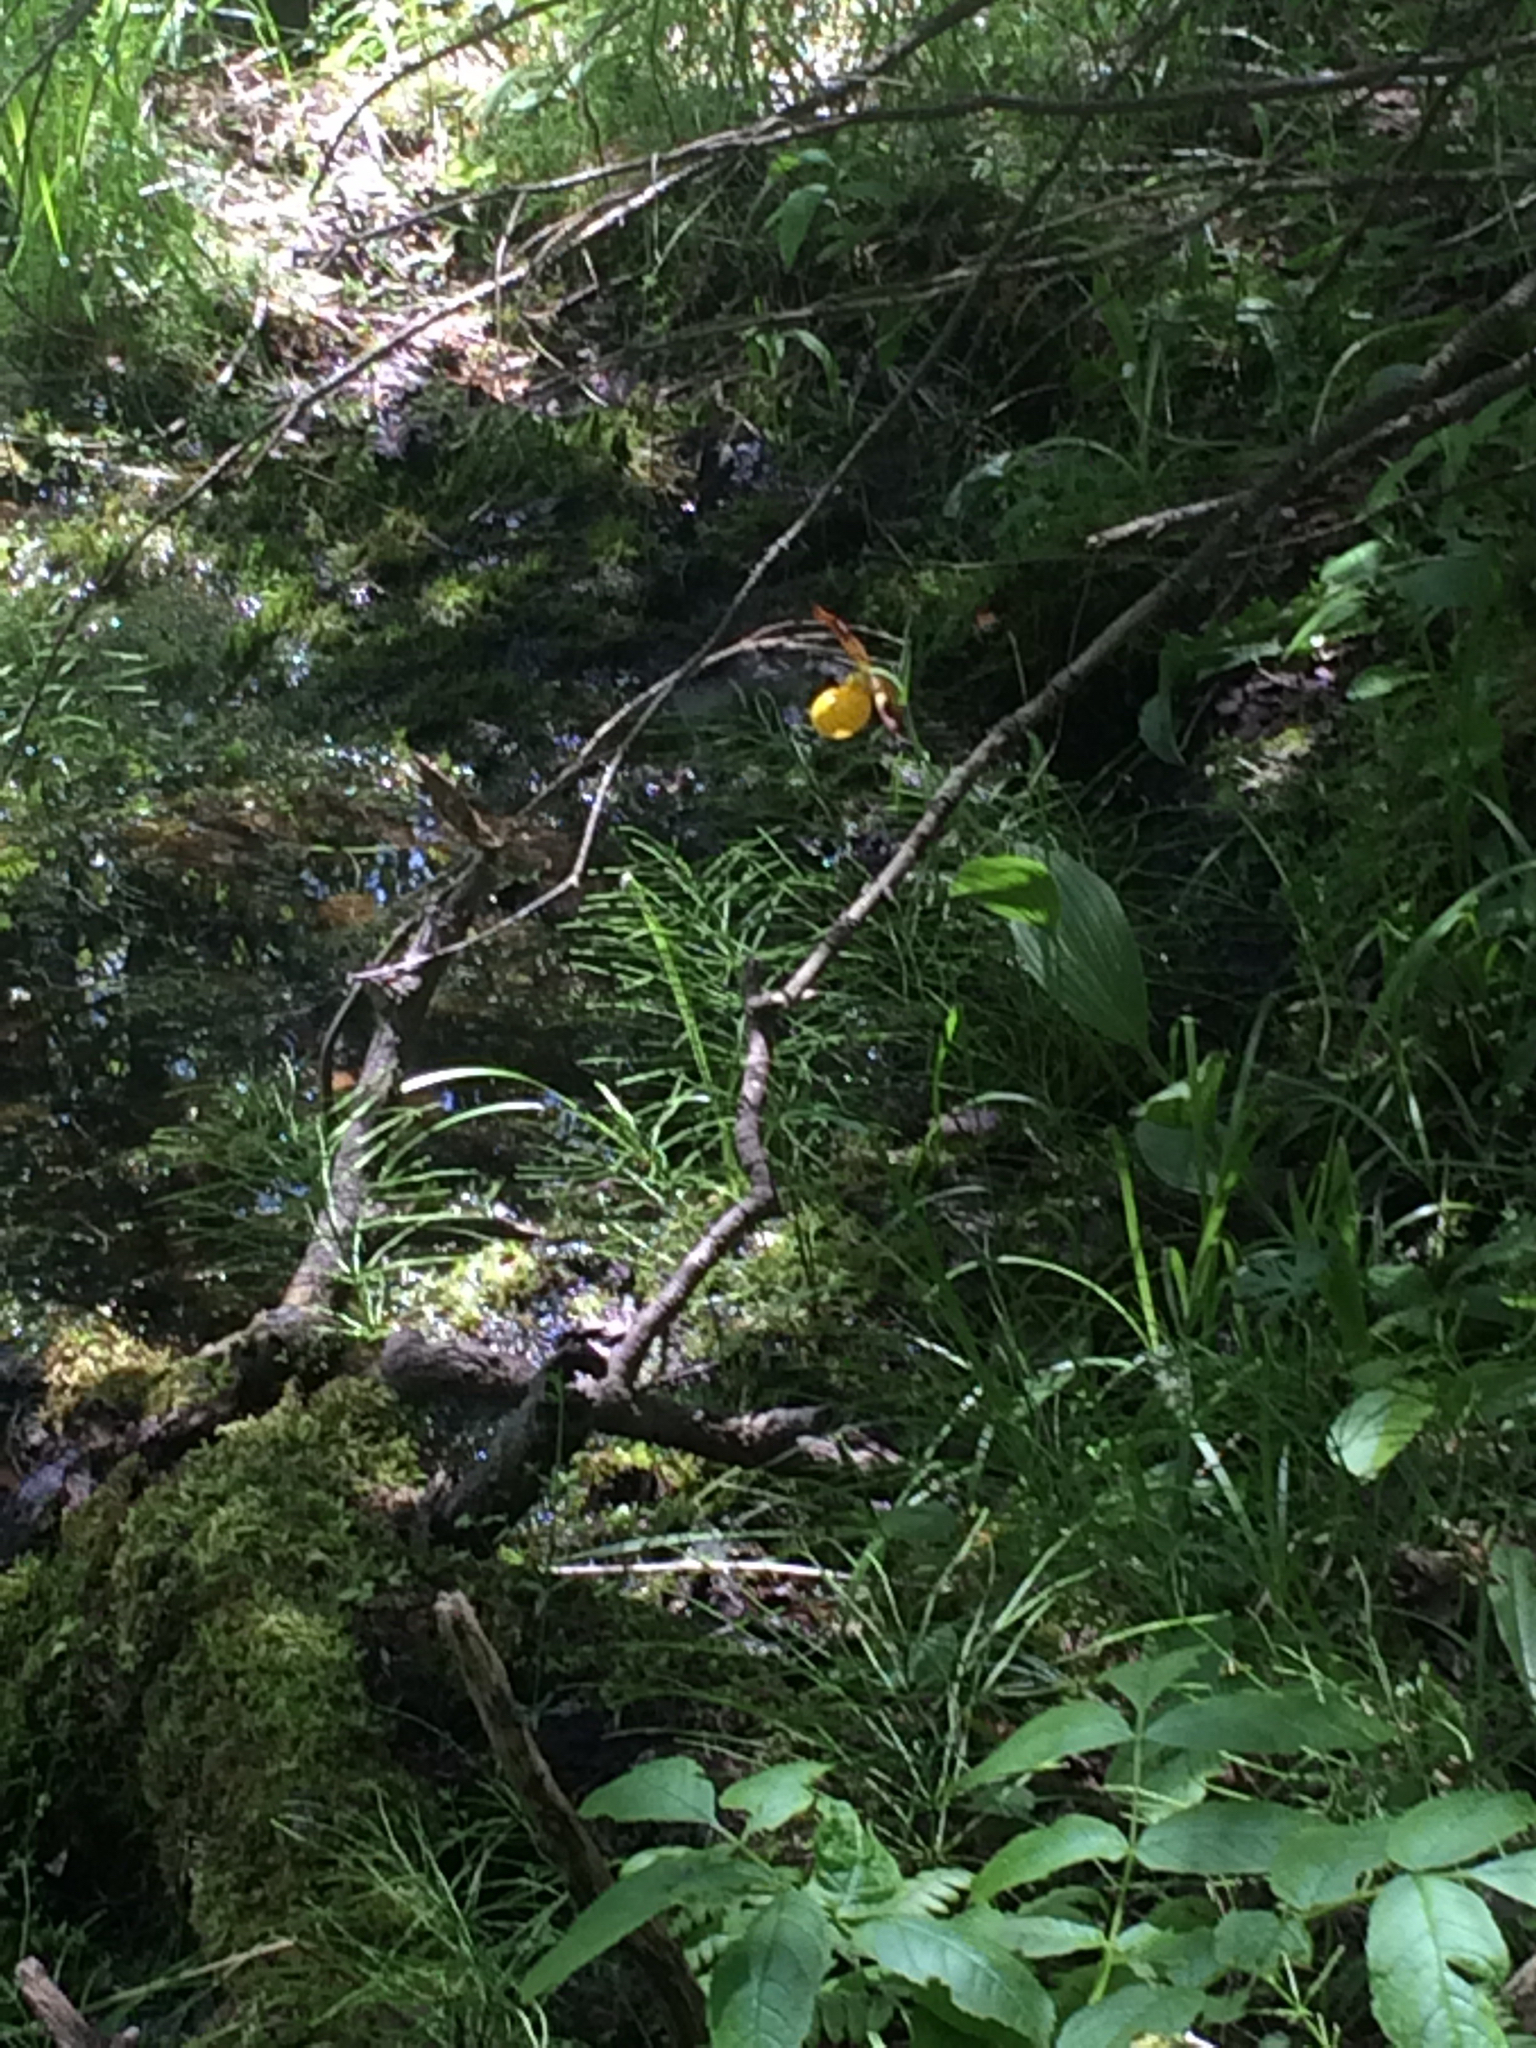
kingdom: Plantae
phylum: Tracheophyta
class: Liliopsida
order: Asparagales
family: Orchidaceae
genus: Cypripedium
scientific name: Cypripedium parviflorum
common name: American yellow lady's-slipper
